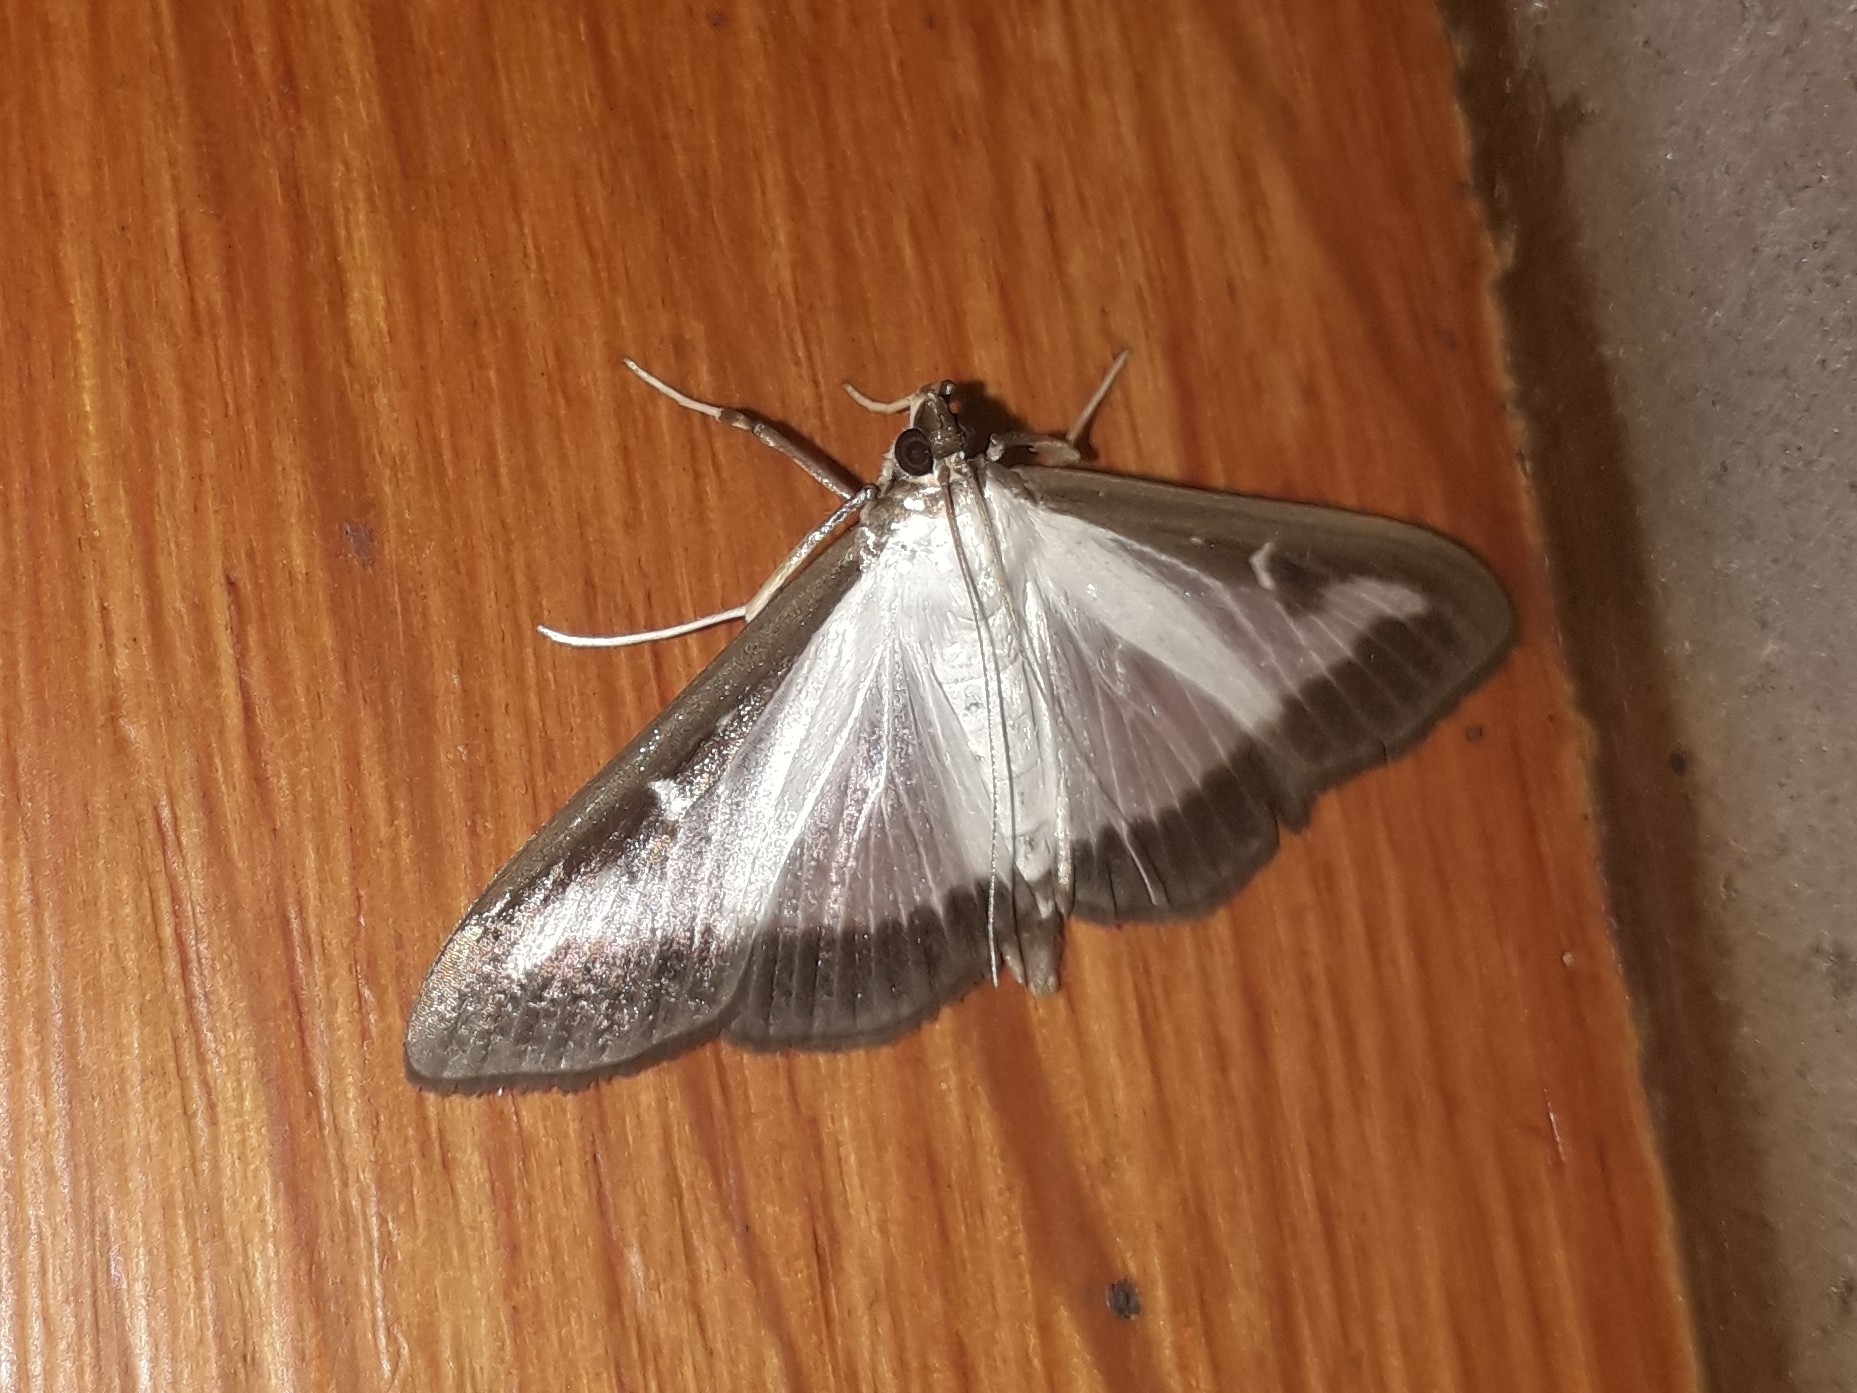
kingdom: Animalia
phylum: Arthropoda
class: Insecta
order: Lepidoptera
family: Crambidae
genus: Cydalima
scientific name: Cydalima perspectalis
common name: Box tree moth
